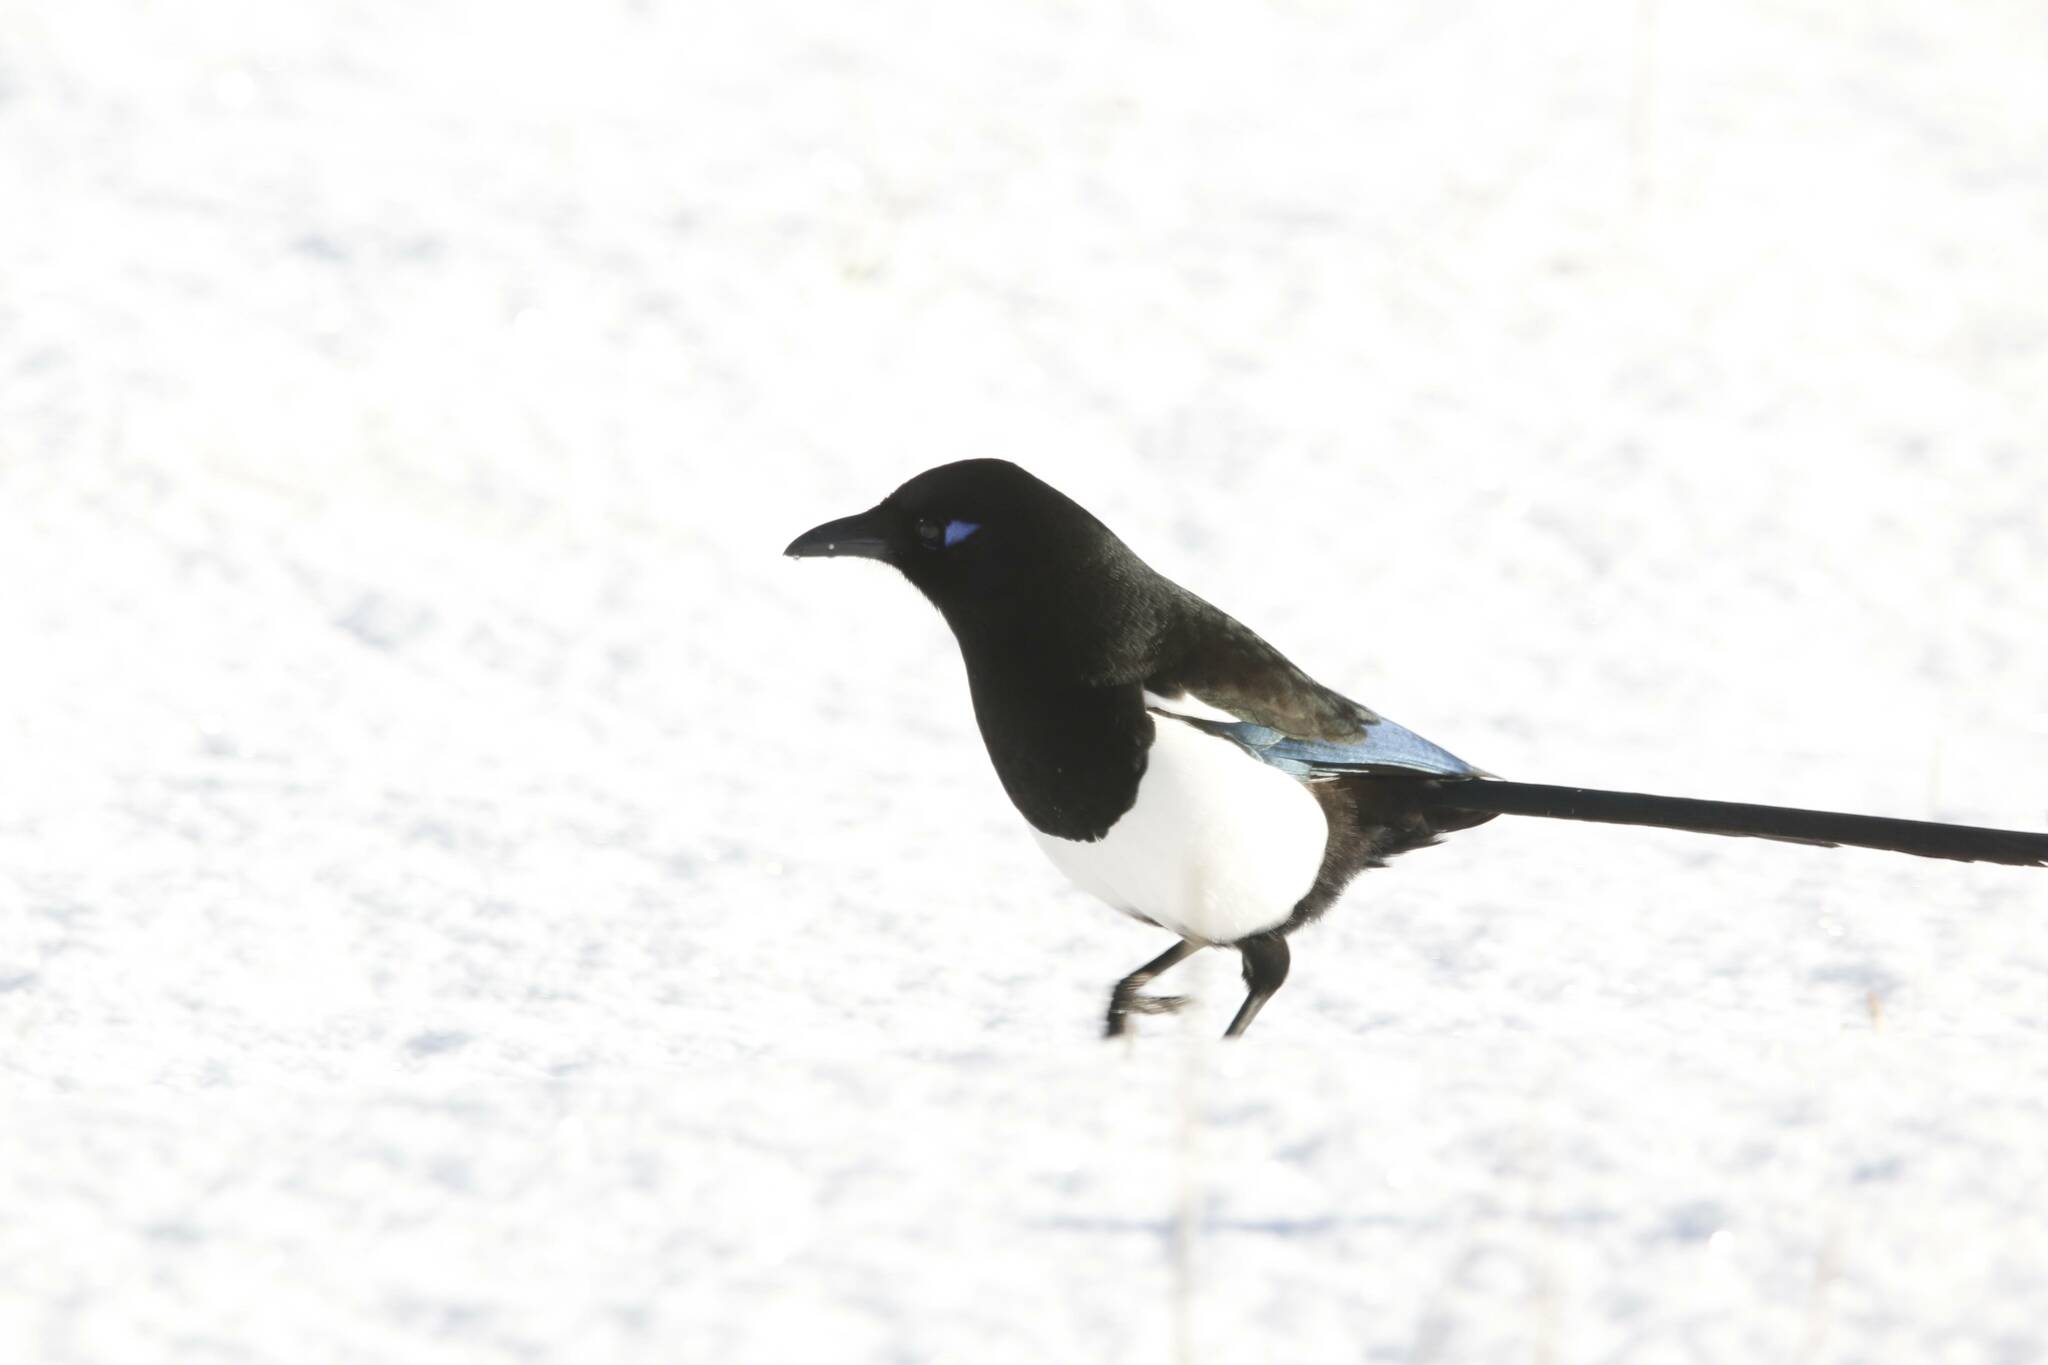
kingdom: Animalia
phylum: Chordata
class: Aves
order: Passeriformes
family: Corvidae
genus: Pica
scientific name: Pica mauritanica
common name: Maghreb magpie
